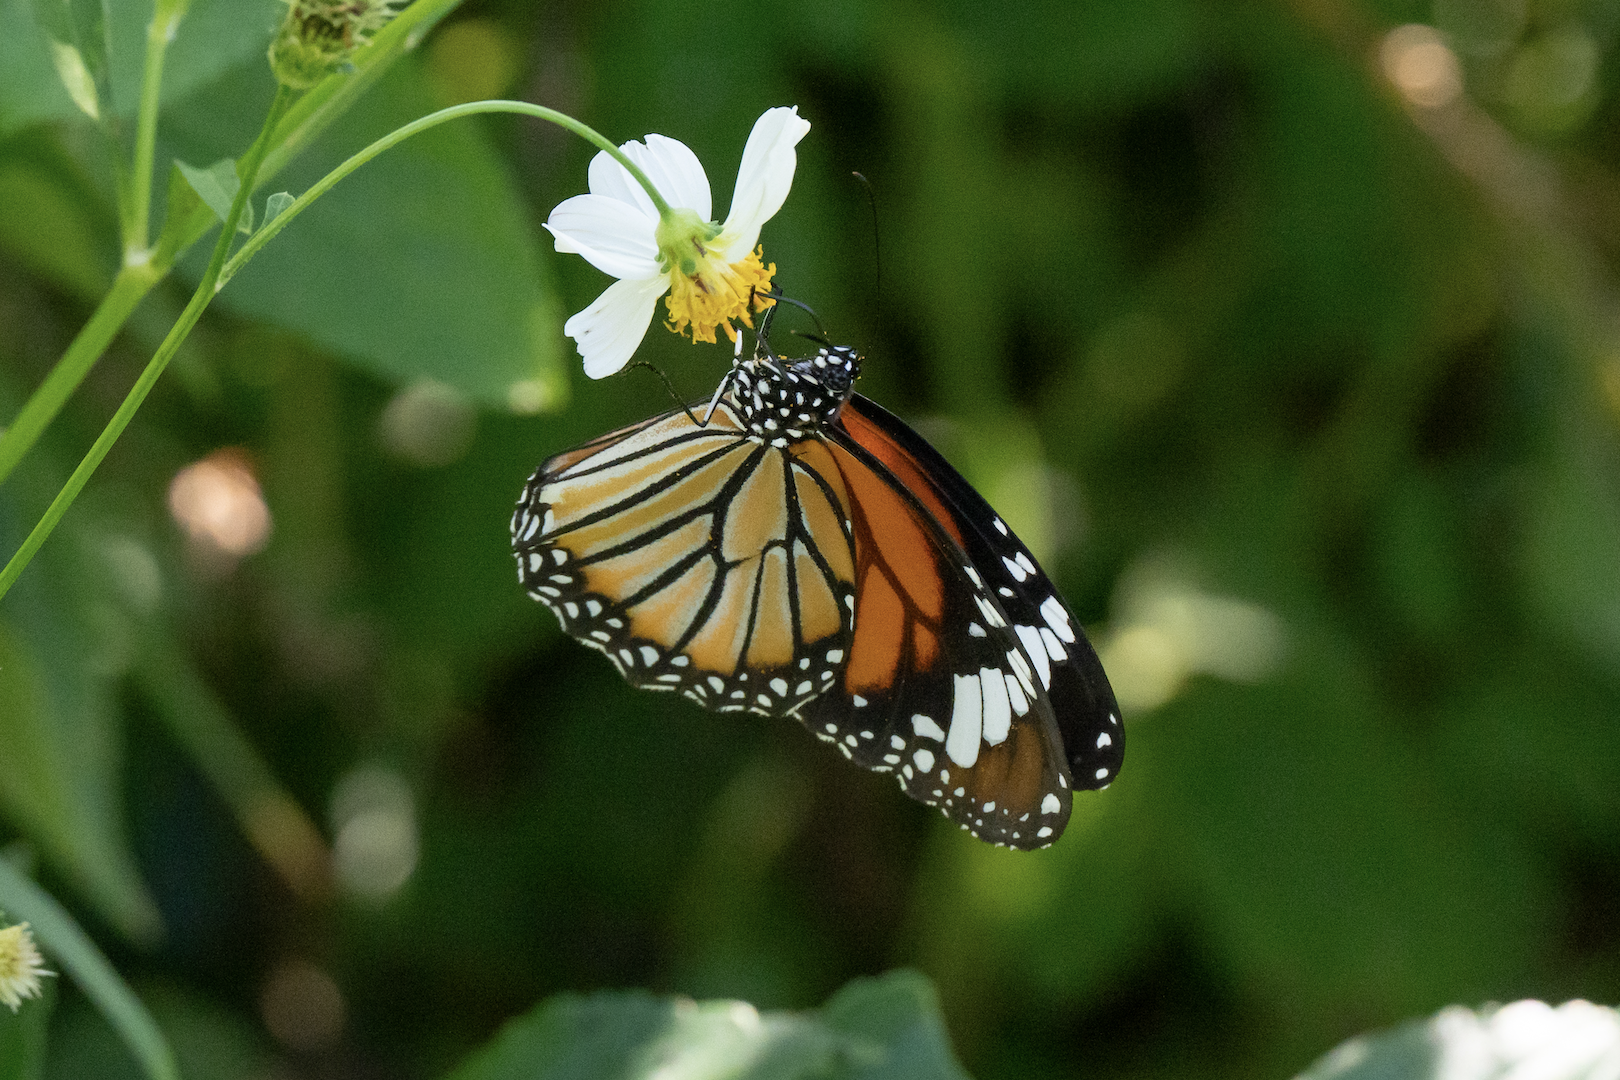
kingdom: Animalia
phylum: Arthropoda
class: Insecta
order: Lepidoptera
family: Nymphalidae
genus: Danaus
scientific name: Danaus genutia
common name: Common tiger butterfly
